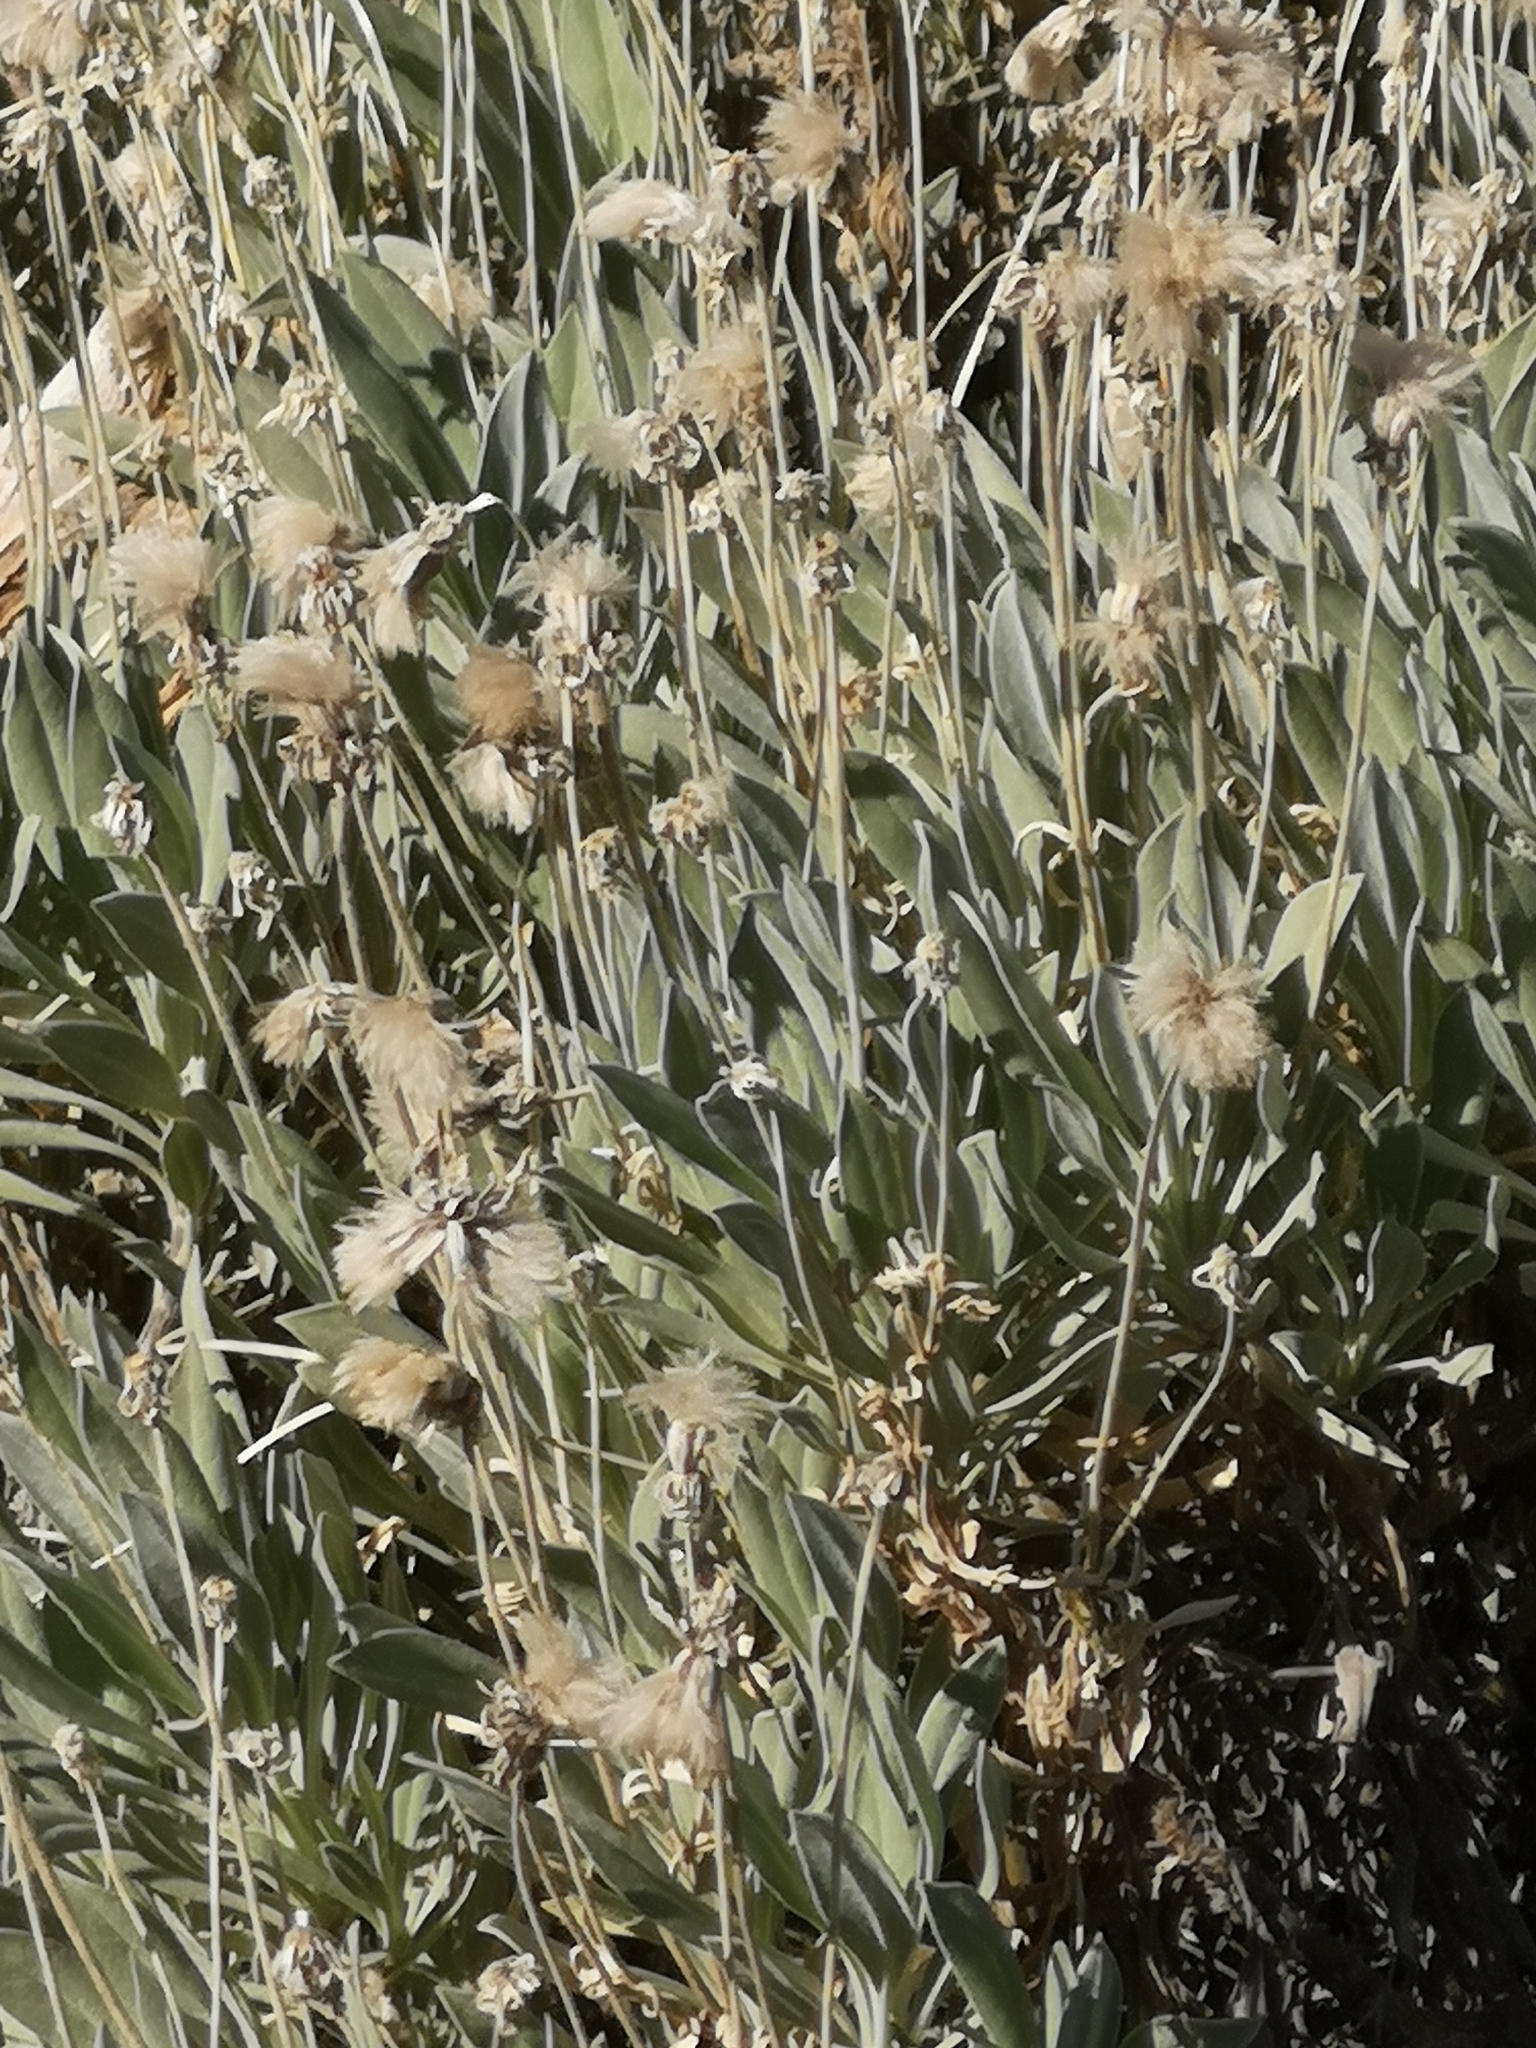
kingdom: Plantae
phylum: Tracheophyta
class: Magnoliopsida
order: Dipsacales
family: Caprifoliaceae
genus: Pterocephalus
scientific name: Pterocephalus lasiospermus
